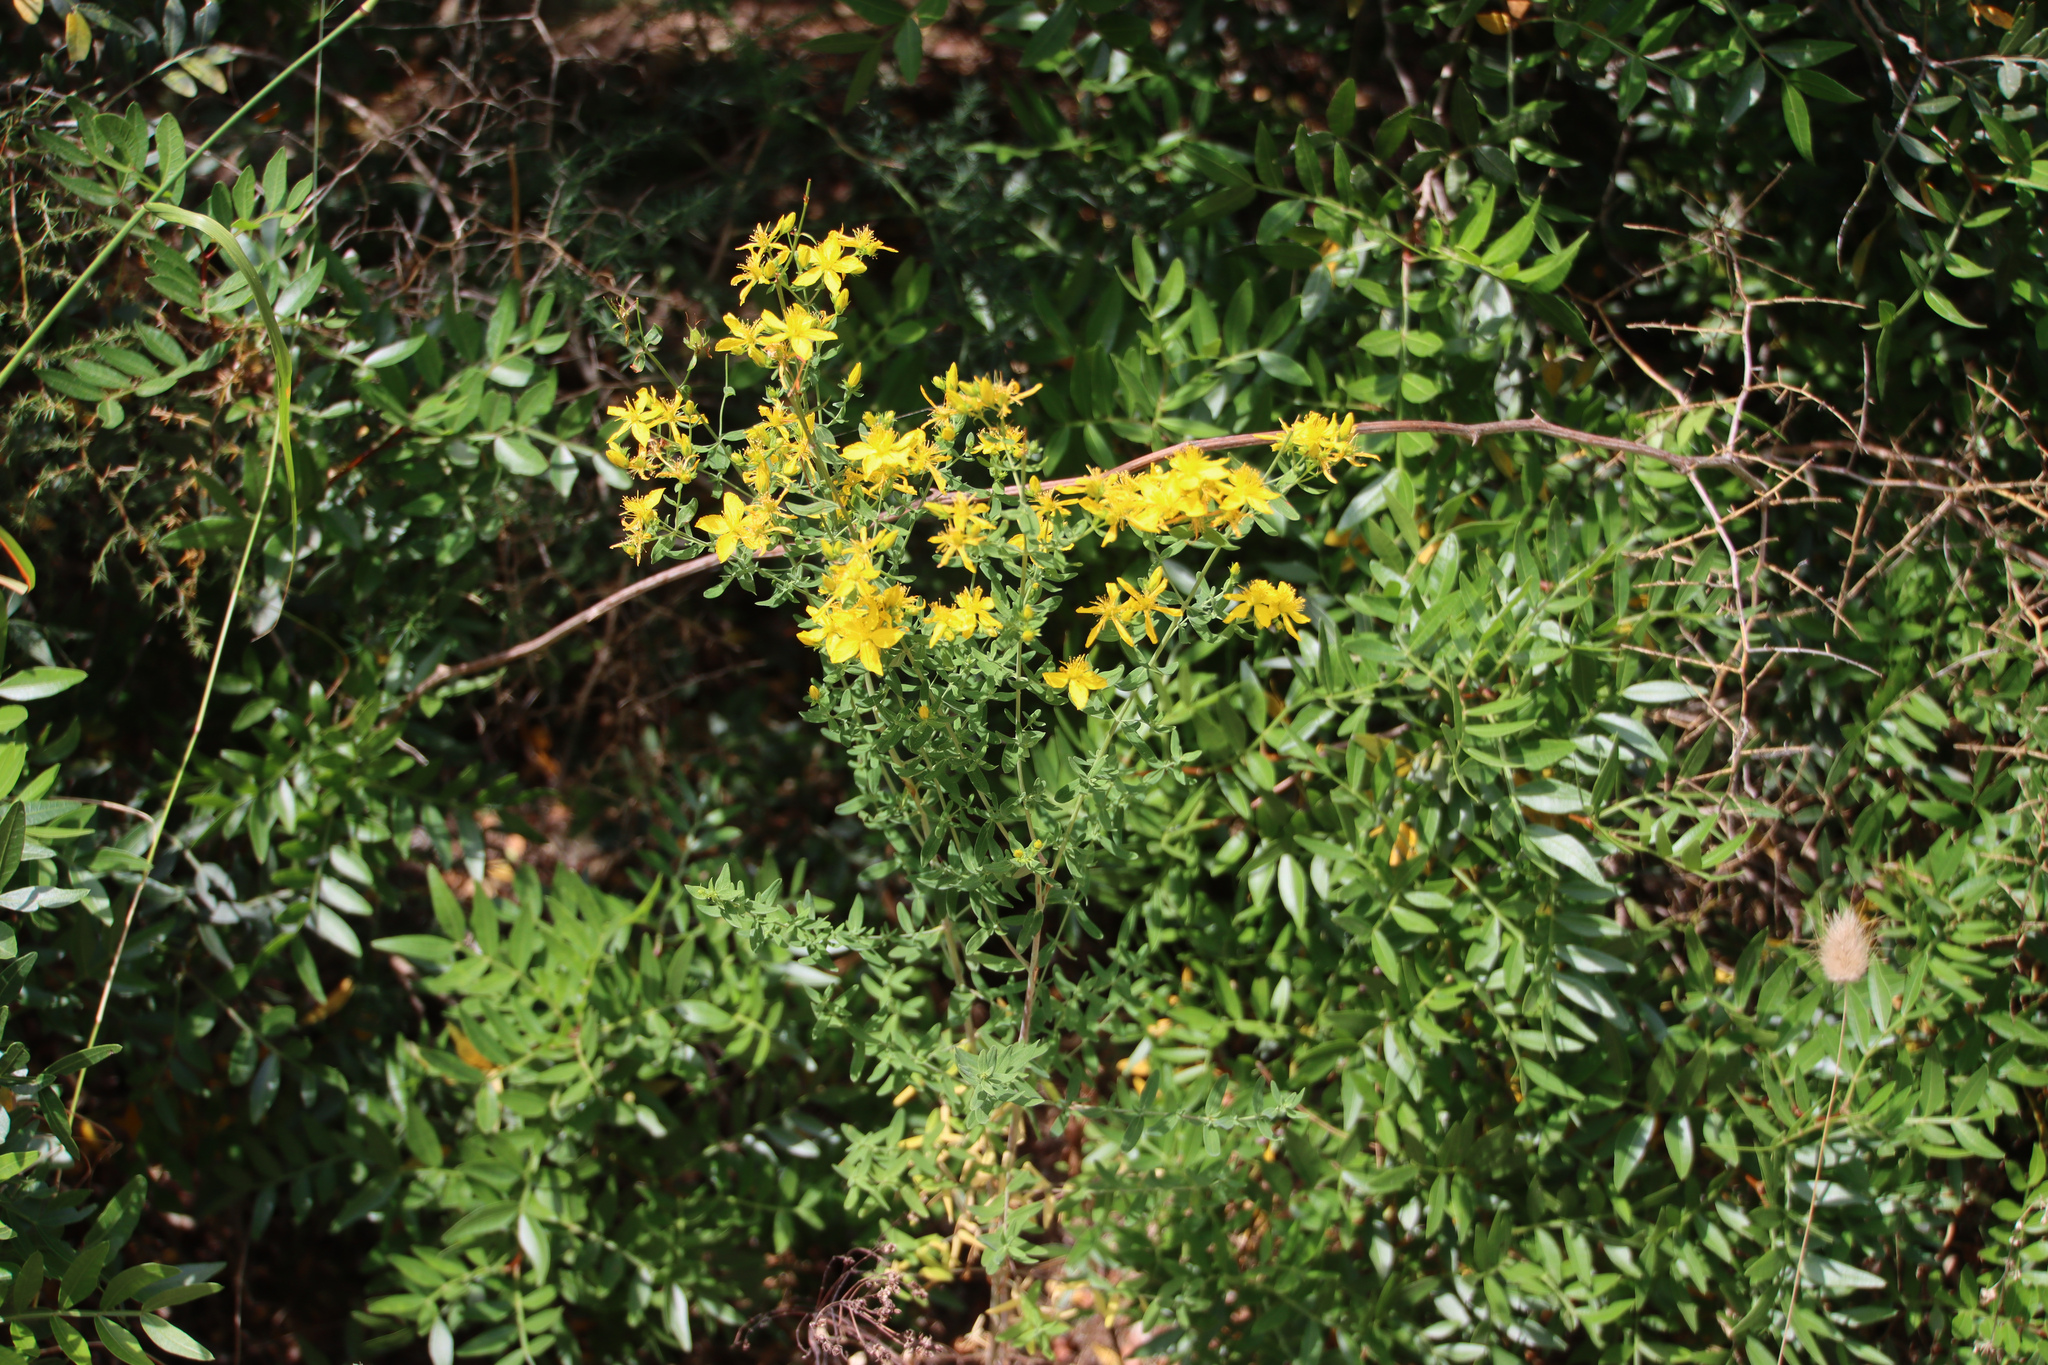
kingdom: Plantae
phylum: Tracheophyta
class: Magnoliopsida
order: Malpighiales
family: Hypericaceae
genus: Hypericum
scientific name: Hypericum perforatum
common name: Common st. johnswort
